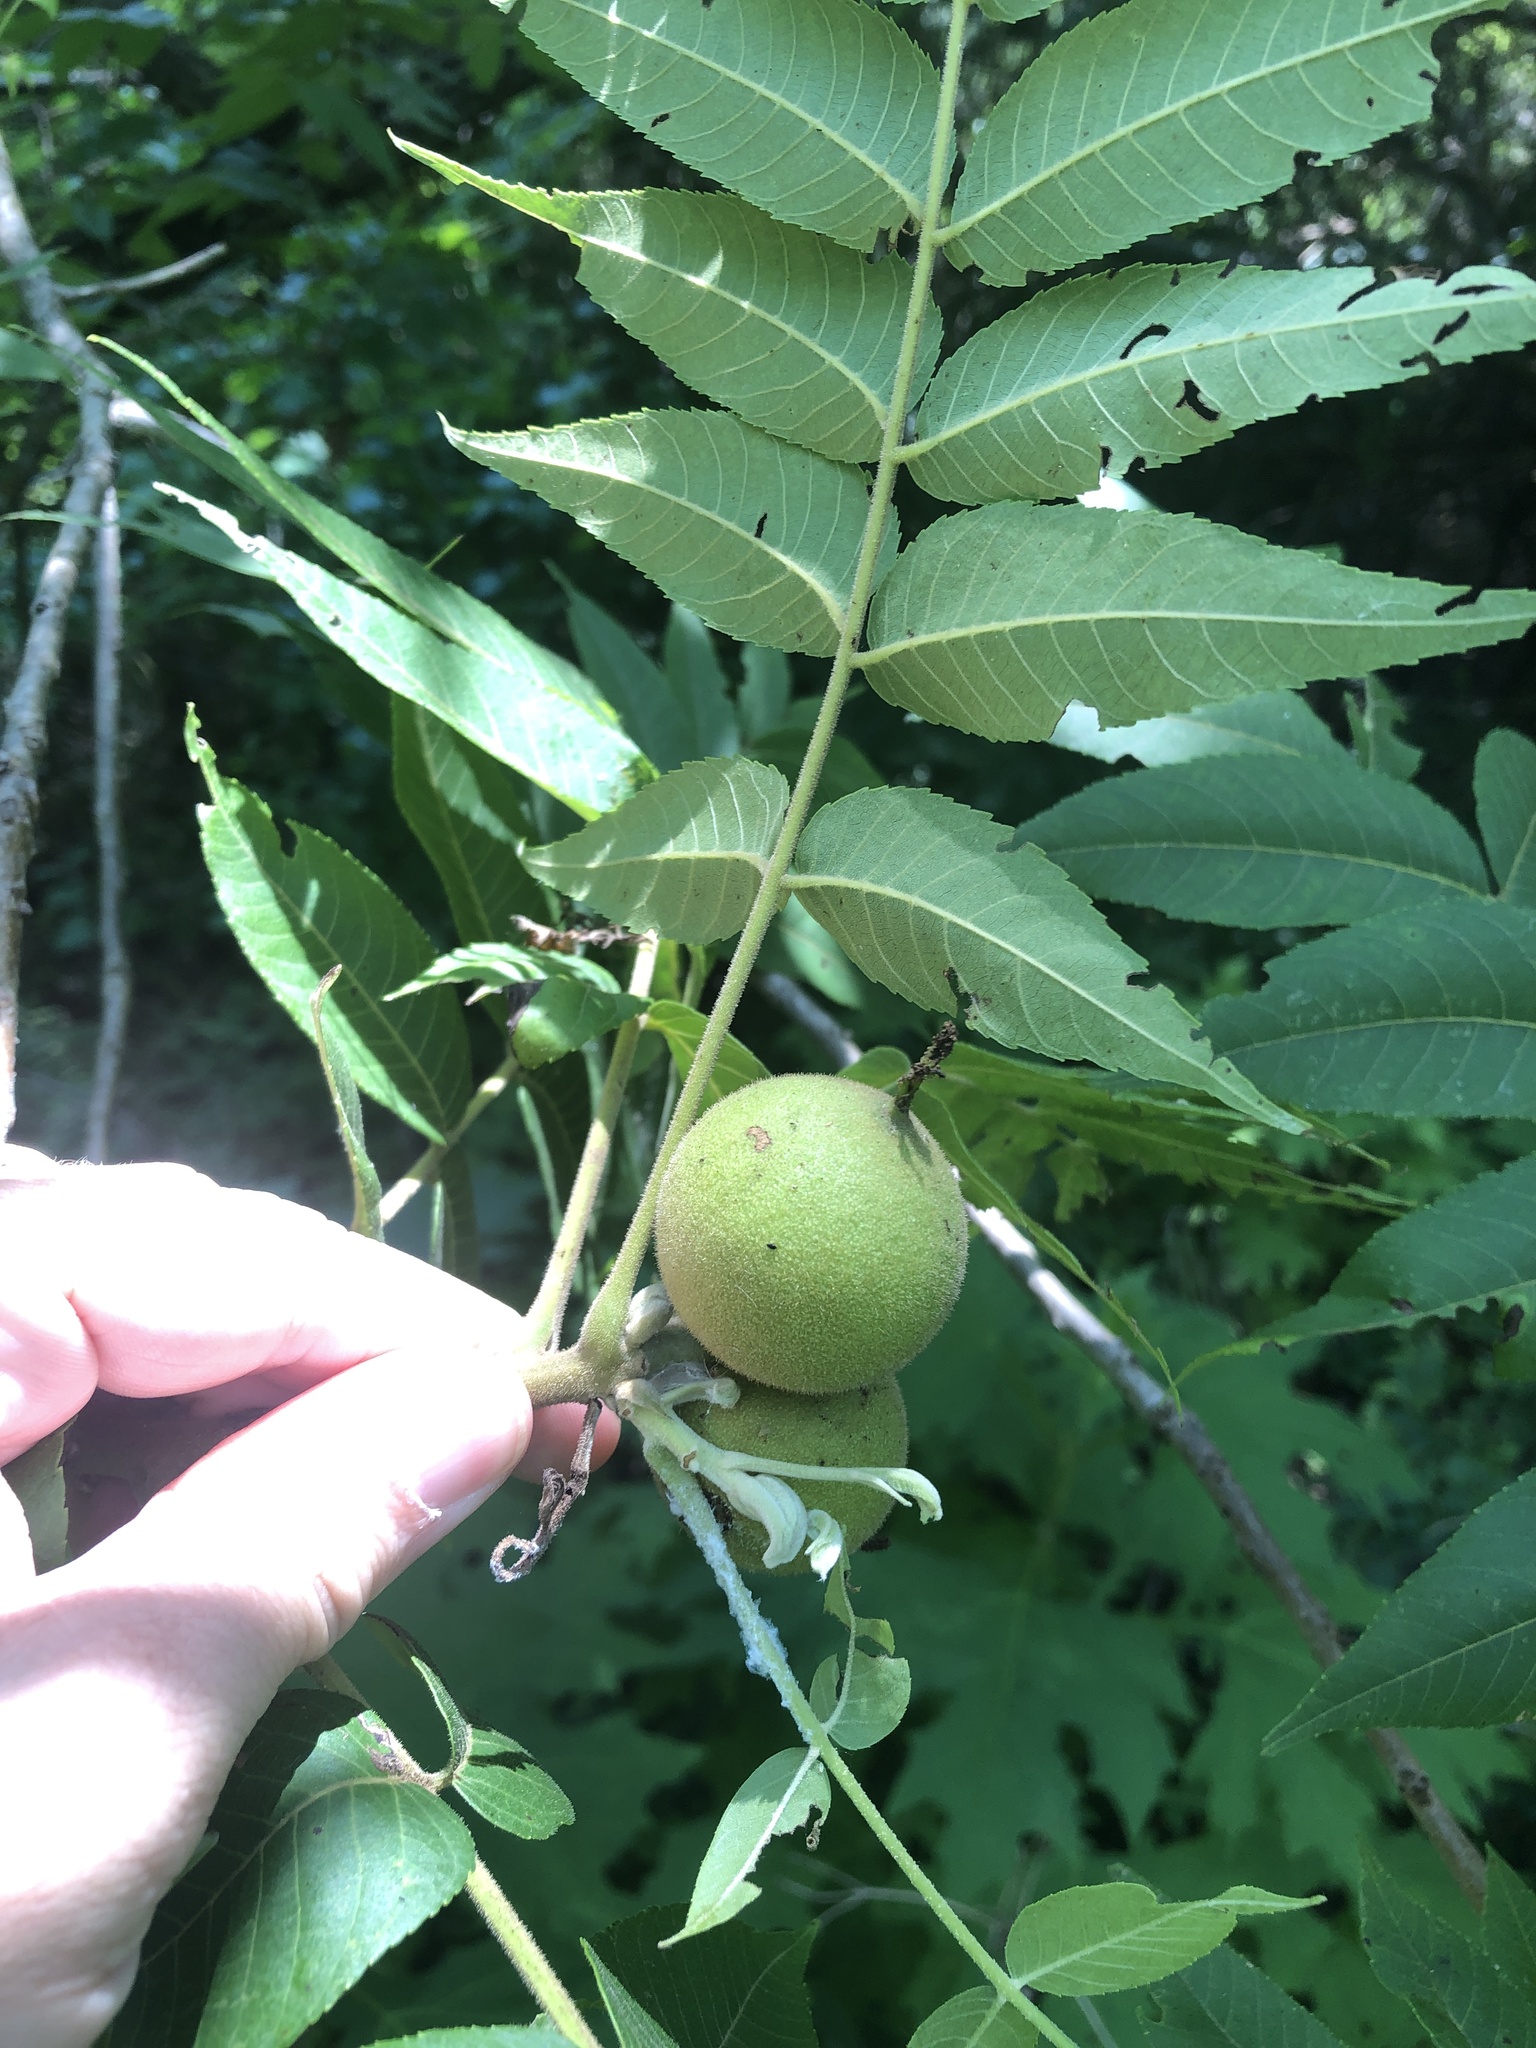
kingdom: Plantae
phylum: Tracheophyta
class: Magnoliopsida
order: Fagales
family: Juglandaceae
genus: Juglans
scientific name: Juglans nigra
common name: Black walnut
